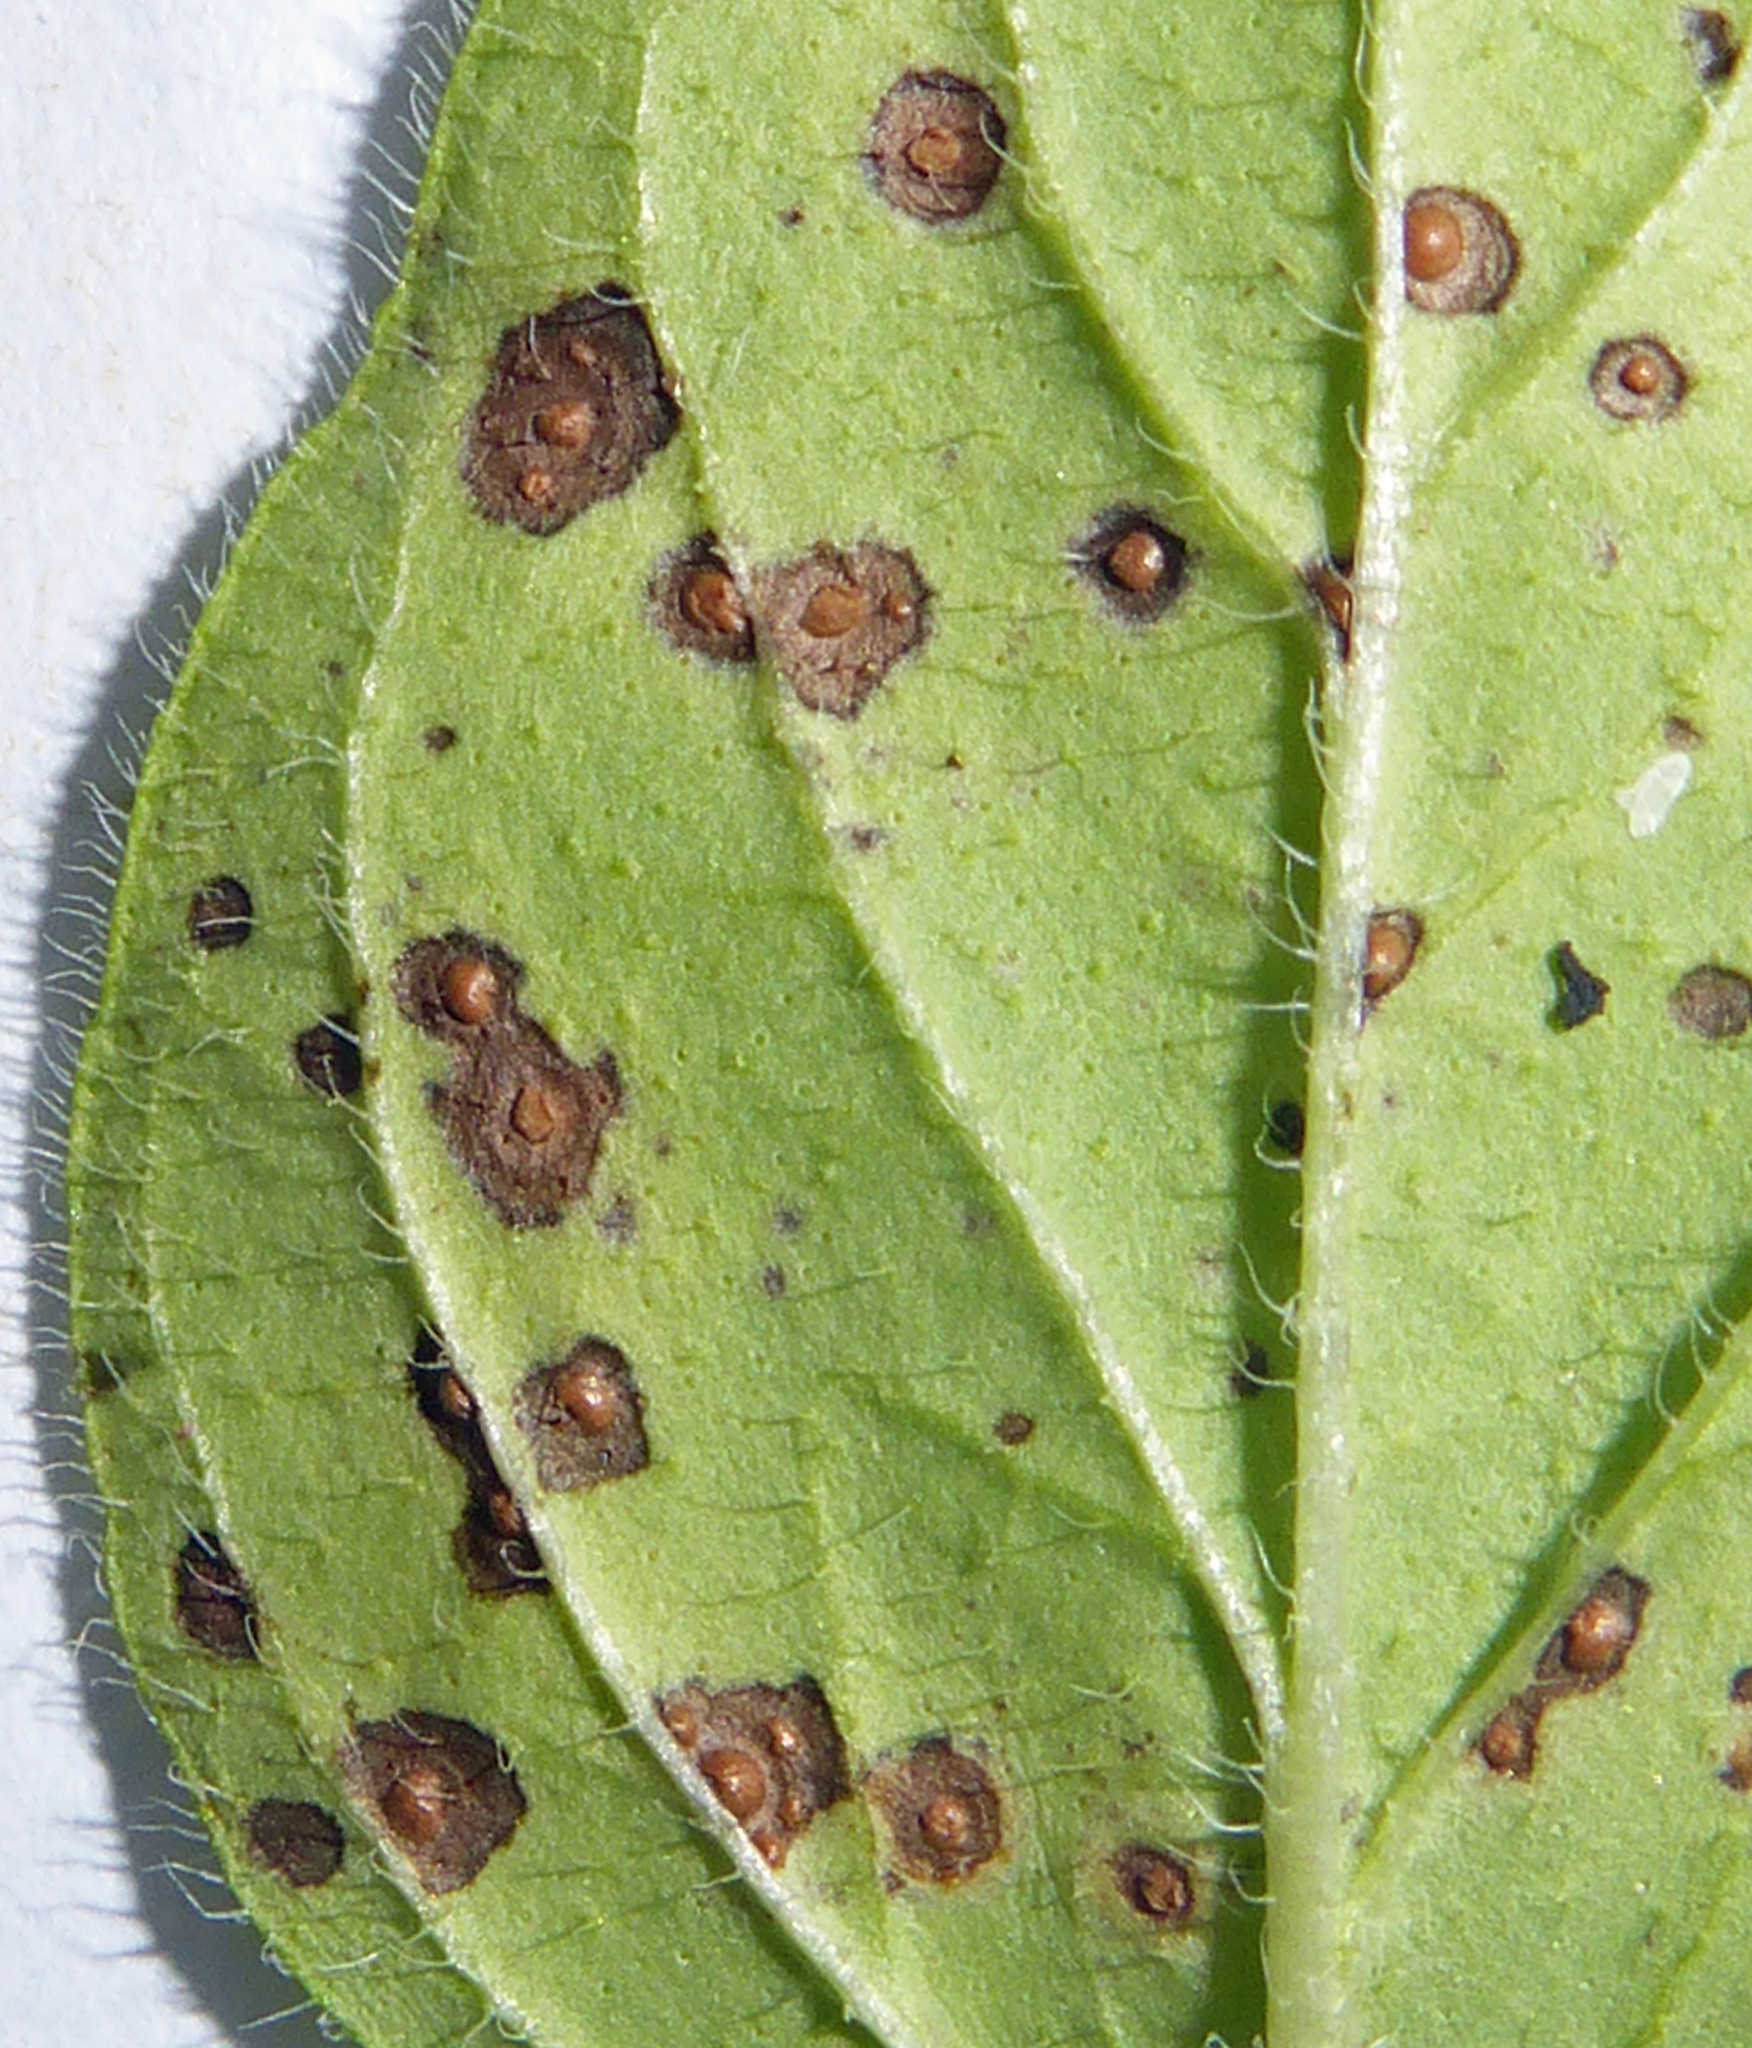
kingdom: Fungi
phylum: Basidiomycota
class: Pucciniomycetes
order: Pucciniales
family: Pucciniaceae
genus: Puccinia
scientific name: Puccinia menthae
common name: Mint rust
